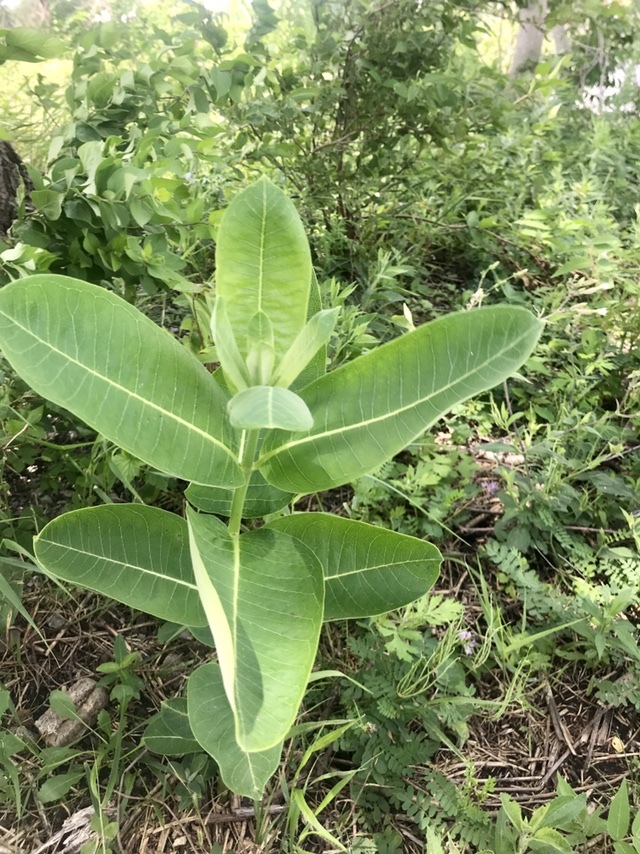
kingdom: Plantae
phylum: Tracheophyta
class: Magnoliopsida
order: Gentianales
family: Apocynaceae
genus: Asclepias
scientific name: Asclepias syriaca
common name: Common milkweed
